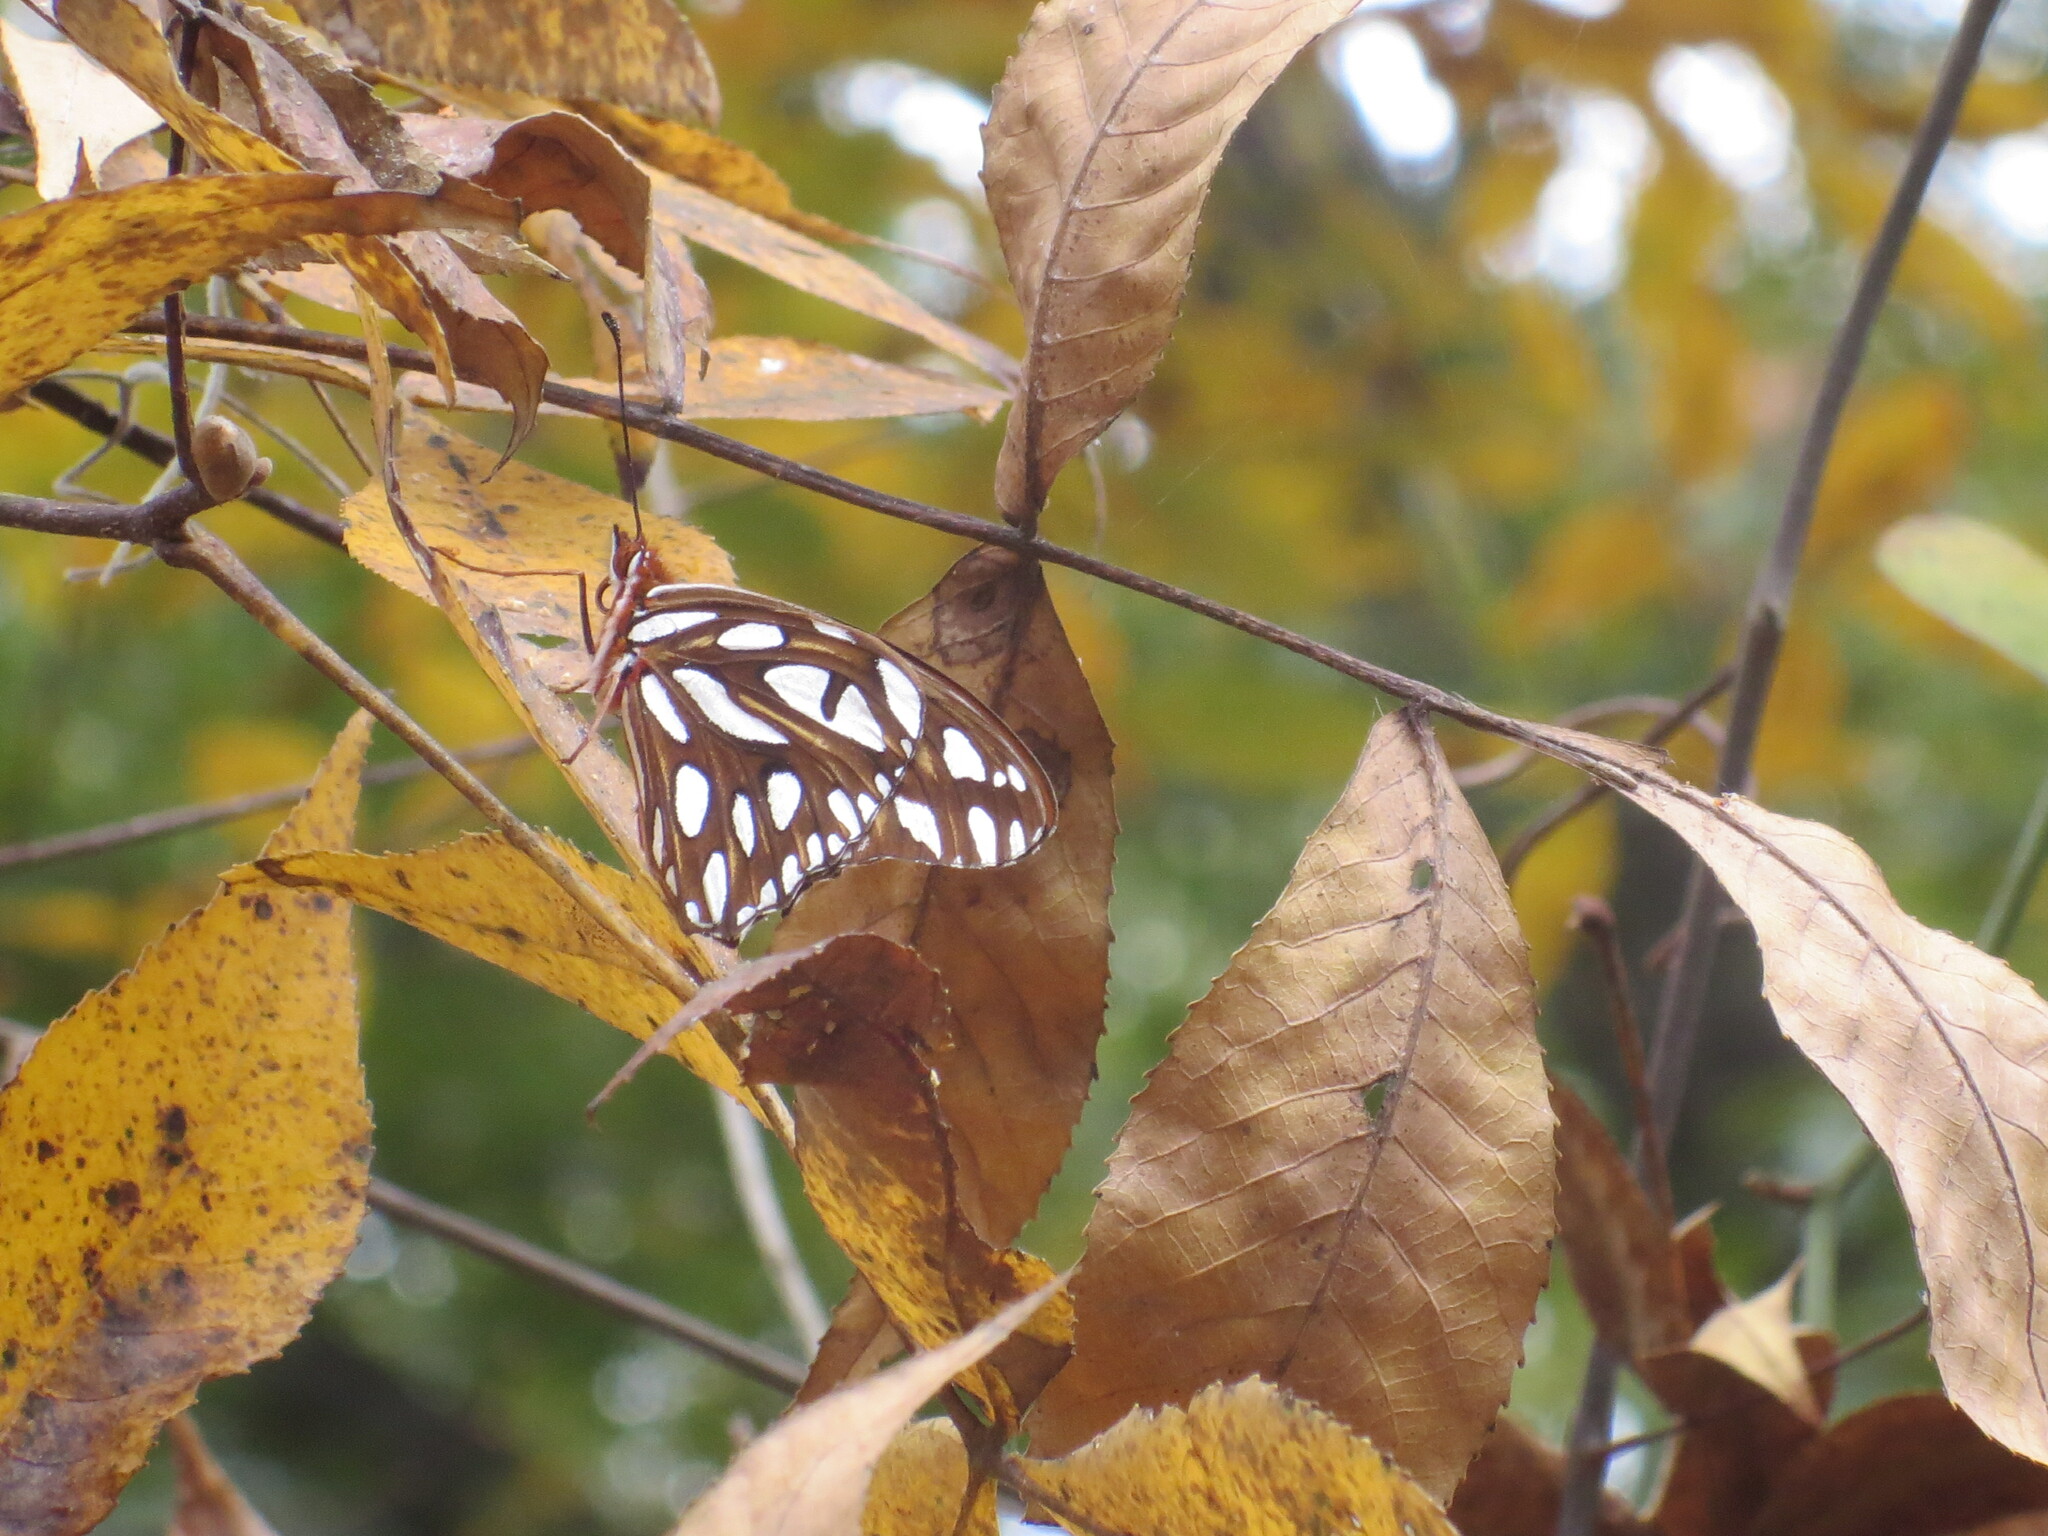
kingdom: Animalia
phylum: Arthropoda
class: Insecta
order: Lepidoptera
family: Nymphalidae
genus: Dione
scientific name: Dione vanillae
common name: Gulf fritillary
